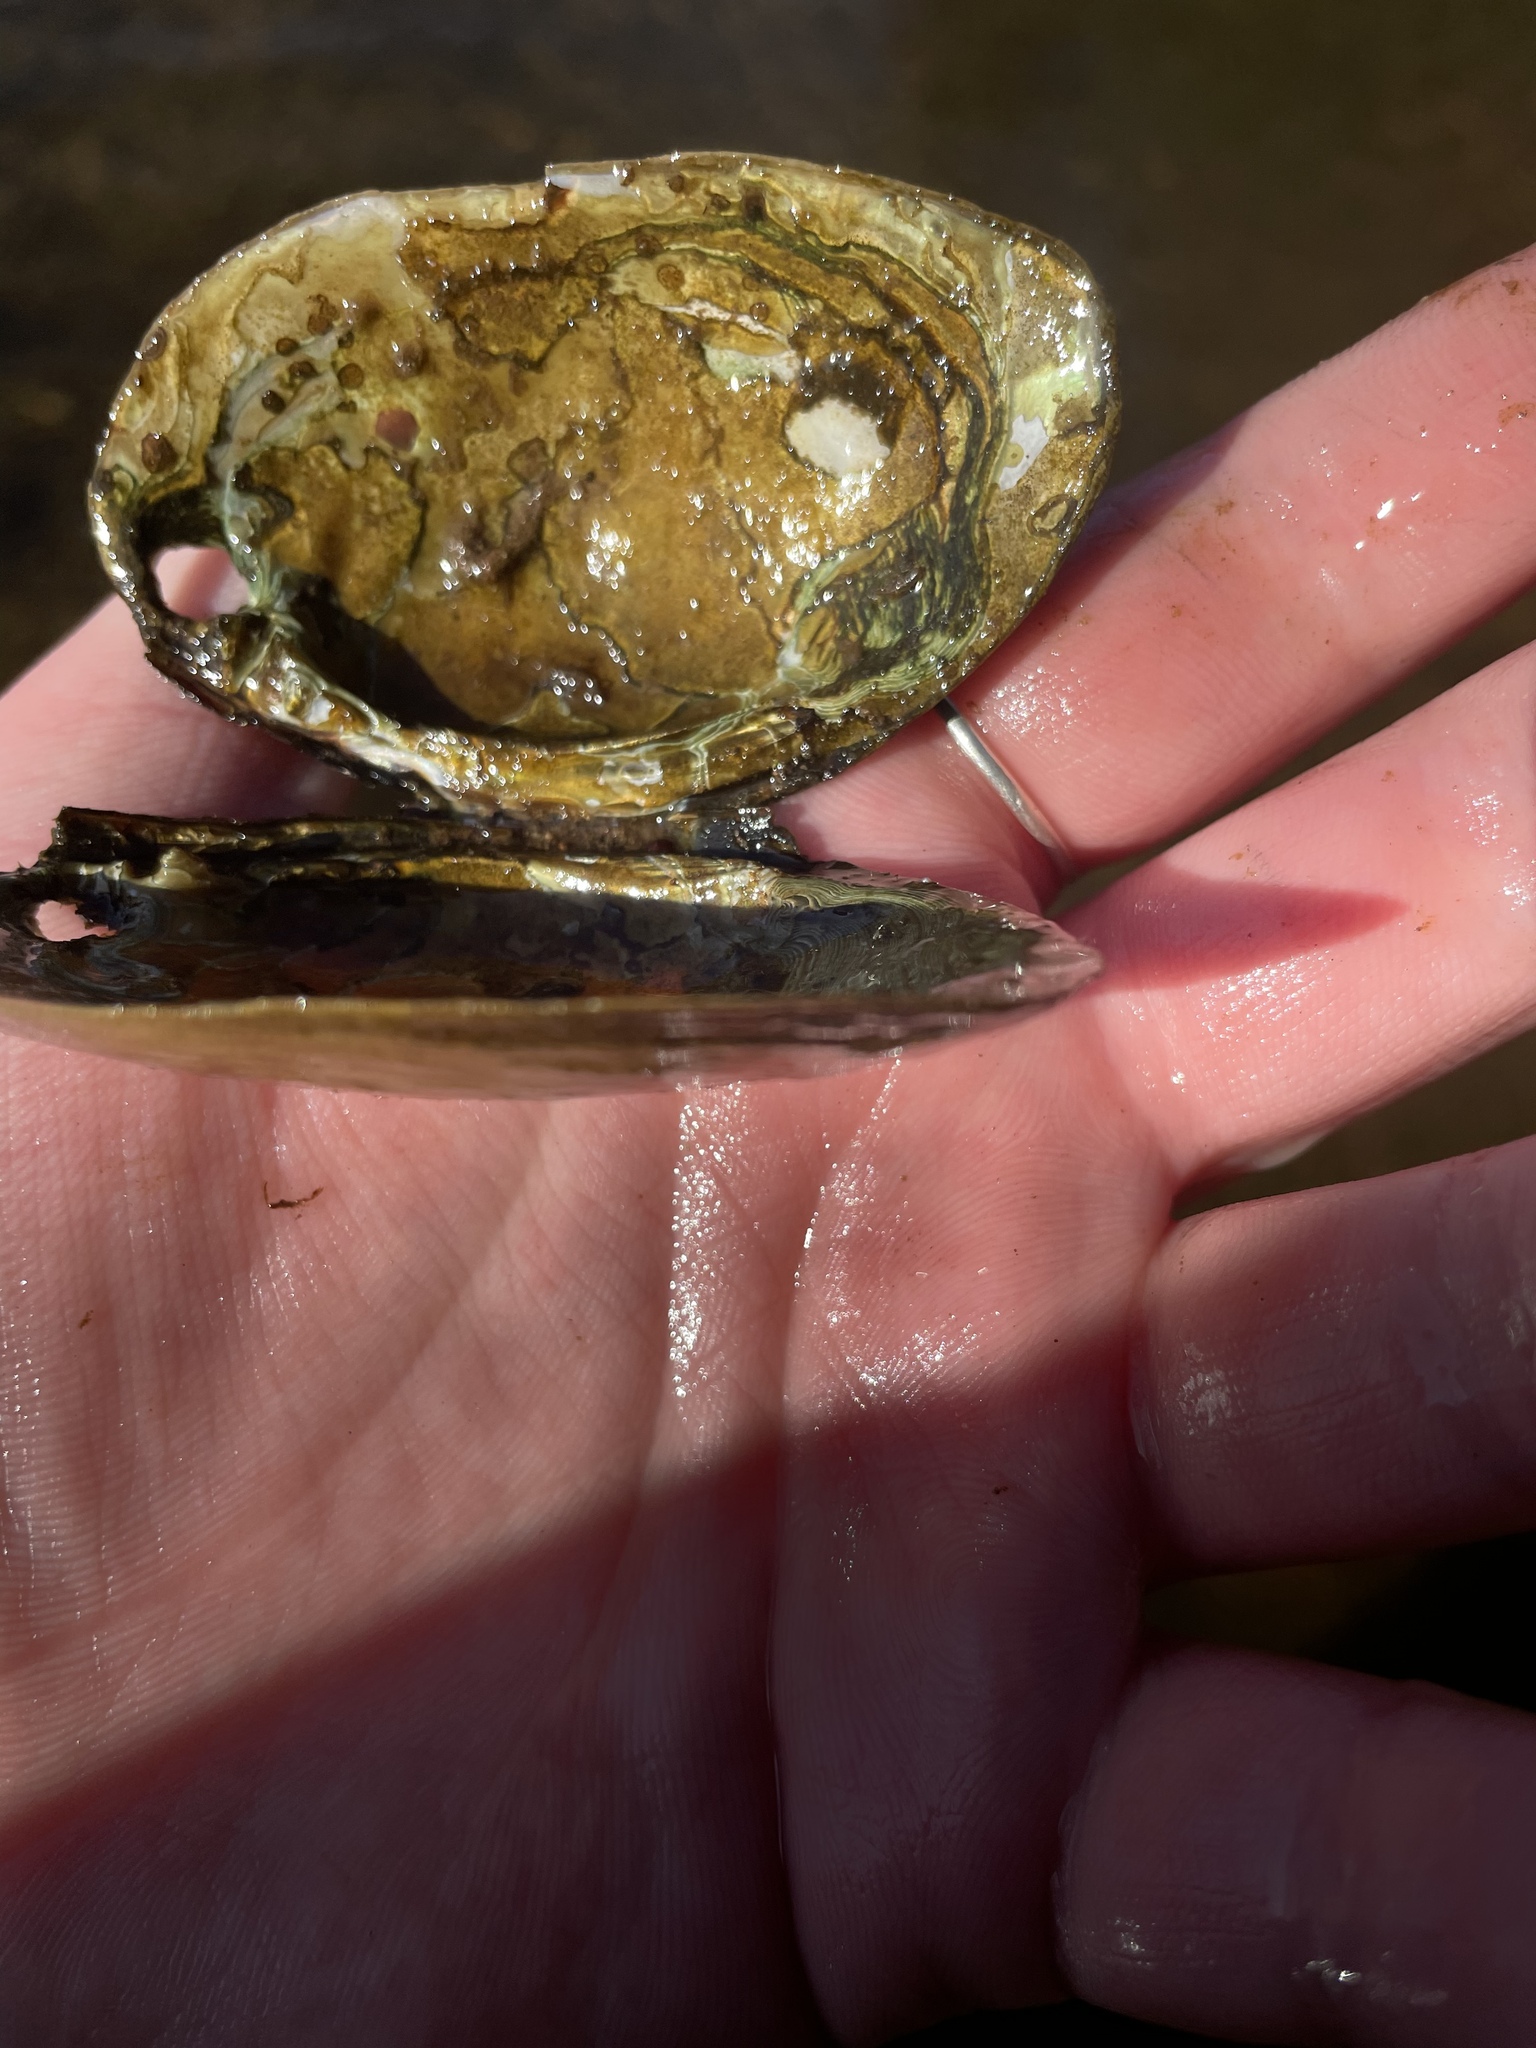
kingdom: Animalia
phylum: Mollusca
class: Bivalvia
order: Unionida
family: Unionidae
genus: Elliptio
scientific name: Elliptio complanata
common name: Eastern elliptio
